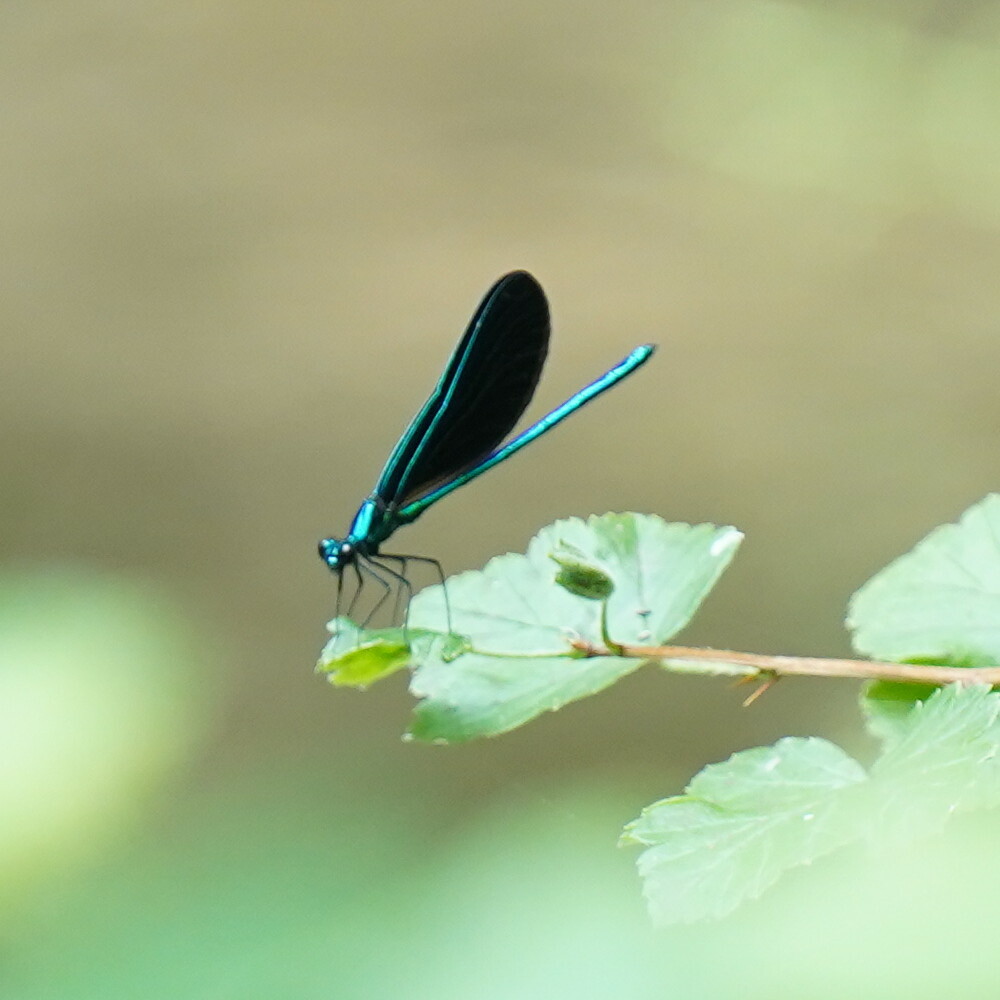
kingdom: Animalia
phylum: Arthropoda
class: Insecta
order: Odonata
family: Calopterygidae
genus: Calopteryx
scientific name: Calopteryx maculata
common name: Ebony jewelwing
